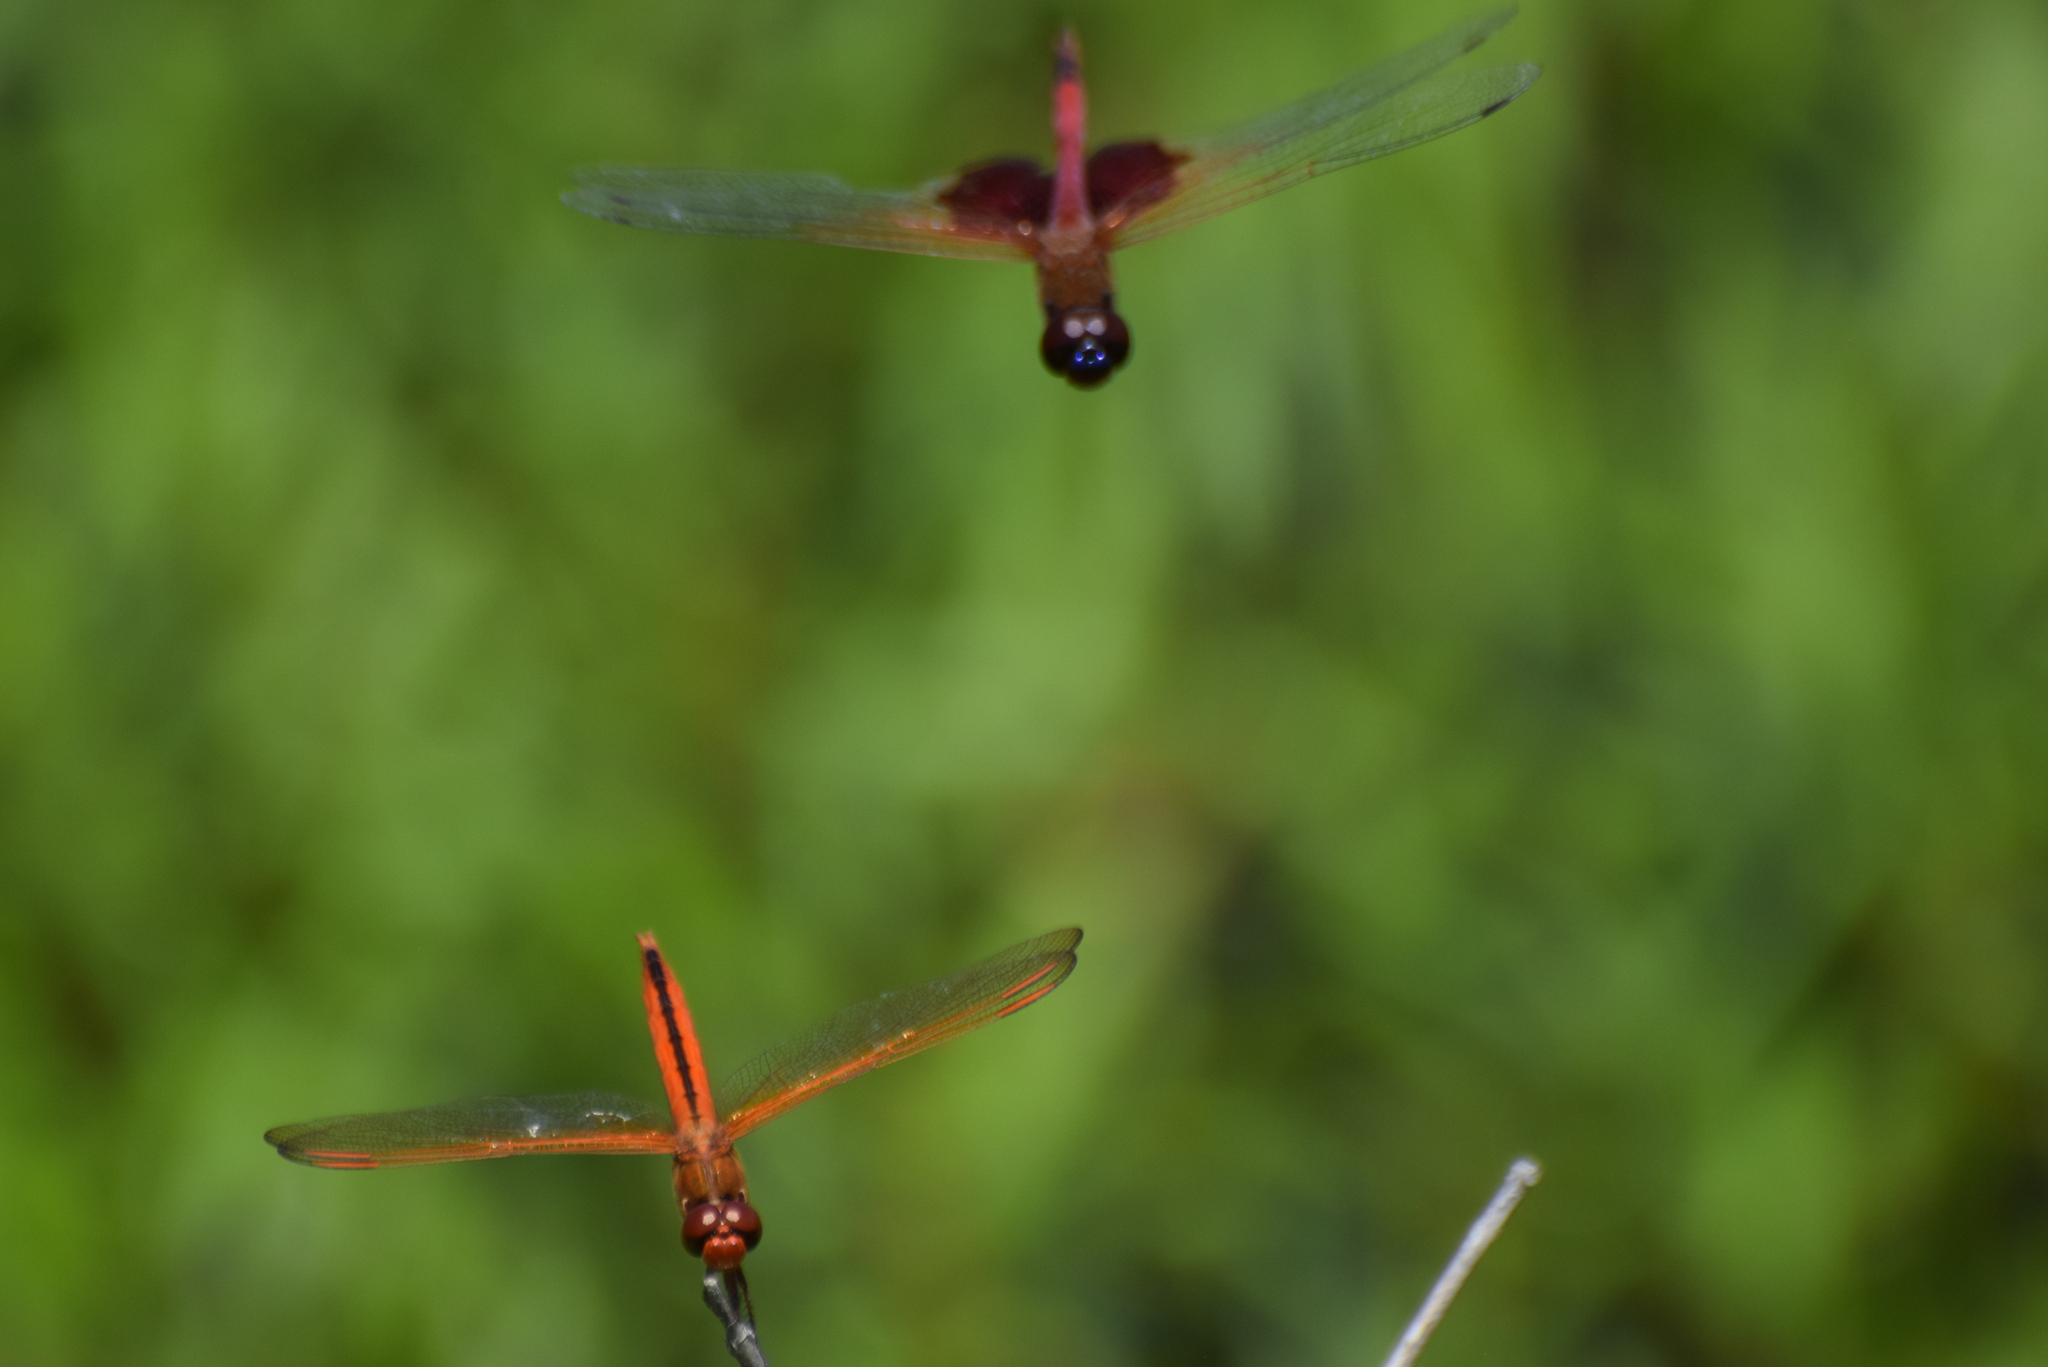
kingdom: Animalia
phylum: Arthropoda
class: Insecta
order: Odonata
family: Libellulidae
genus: Libellula
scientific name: Libellula needhami
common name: Needham's skimmer
